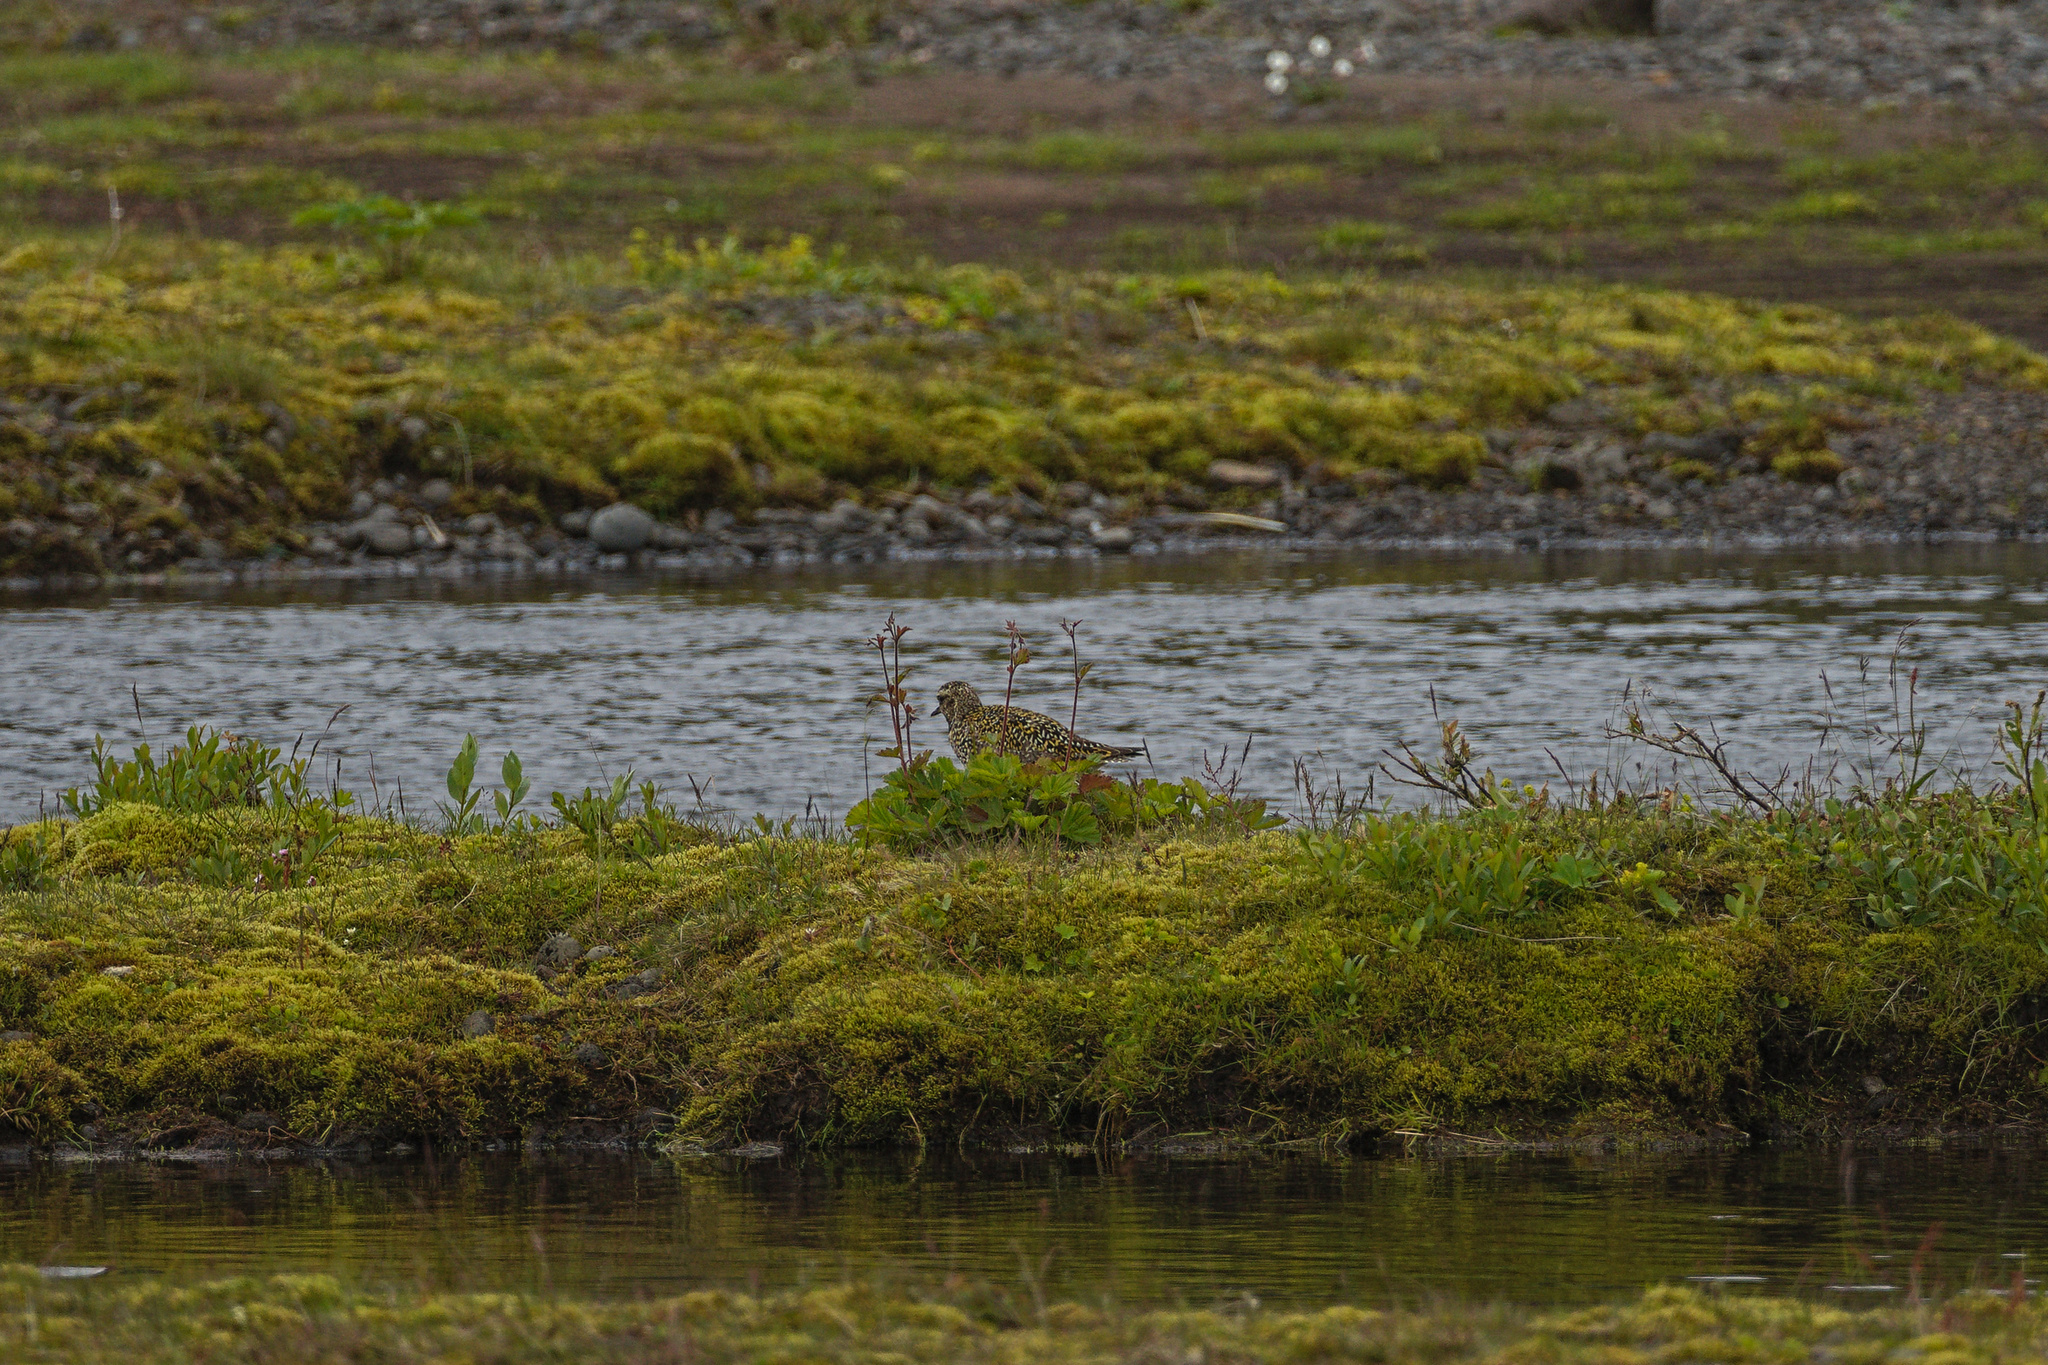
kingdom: Animalia
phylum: Chordata
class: Aves
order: Charadriiformes
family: Charadriidae
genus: Pluvialis
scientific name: Pluvialis apricaria
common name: European golden plover
